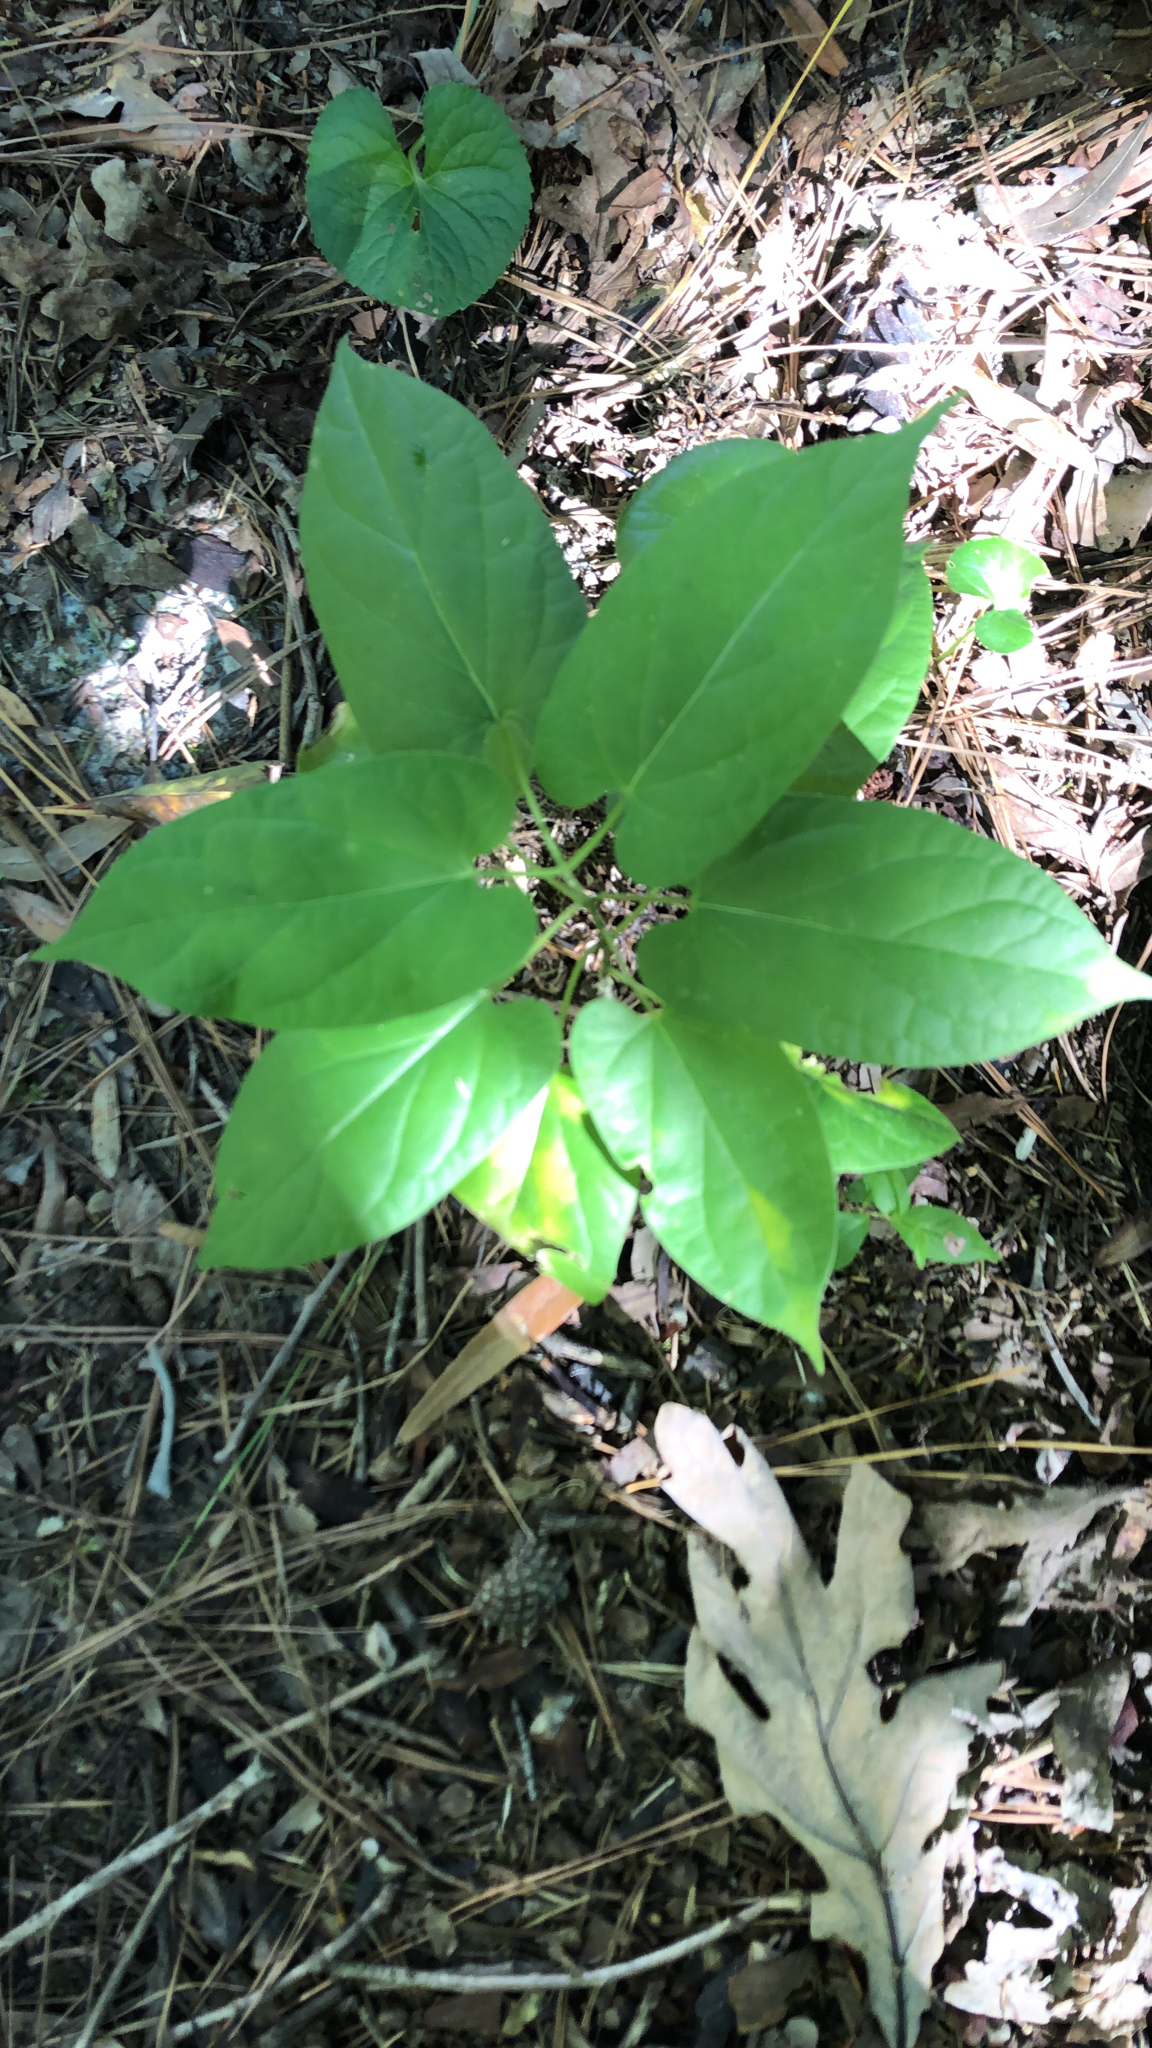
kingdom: Plantae
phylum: Tracheophyta
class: Magnoliopsida
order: Piperales
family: Aristolochiaceae
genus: Endodeca
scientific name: Endodeca serpentaria
